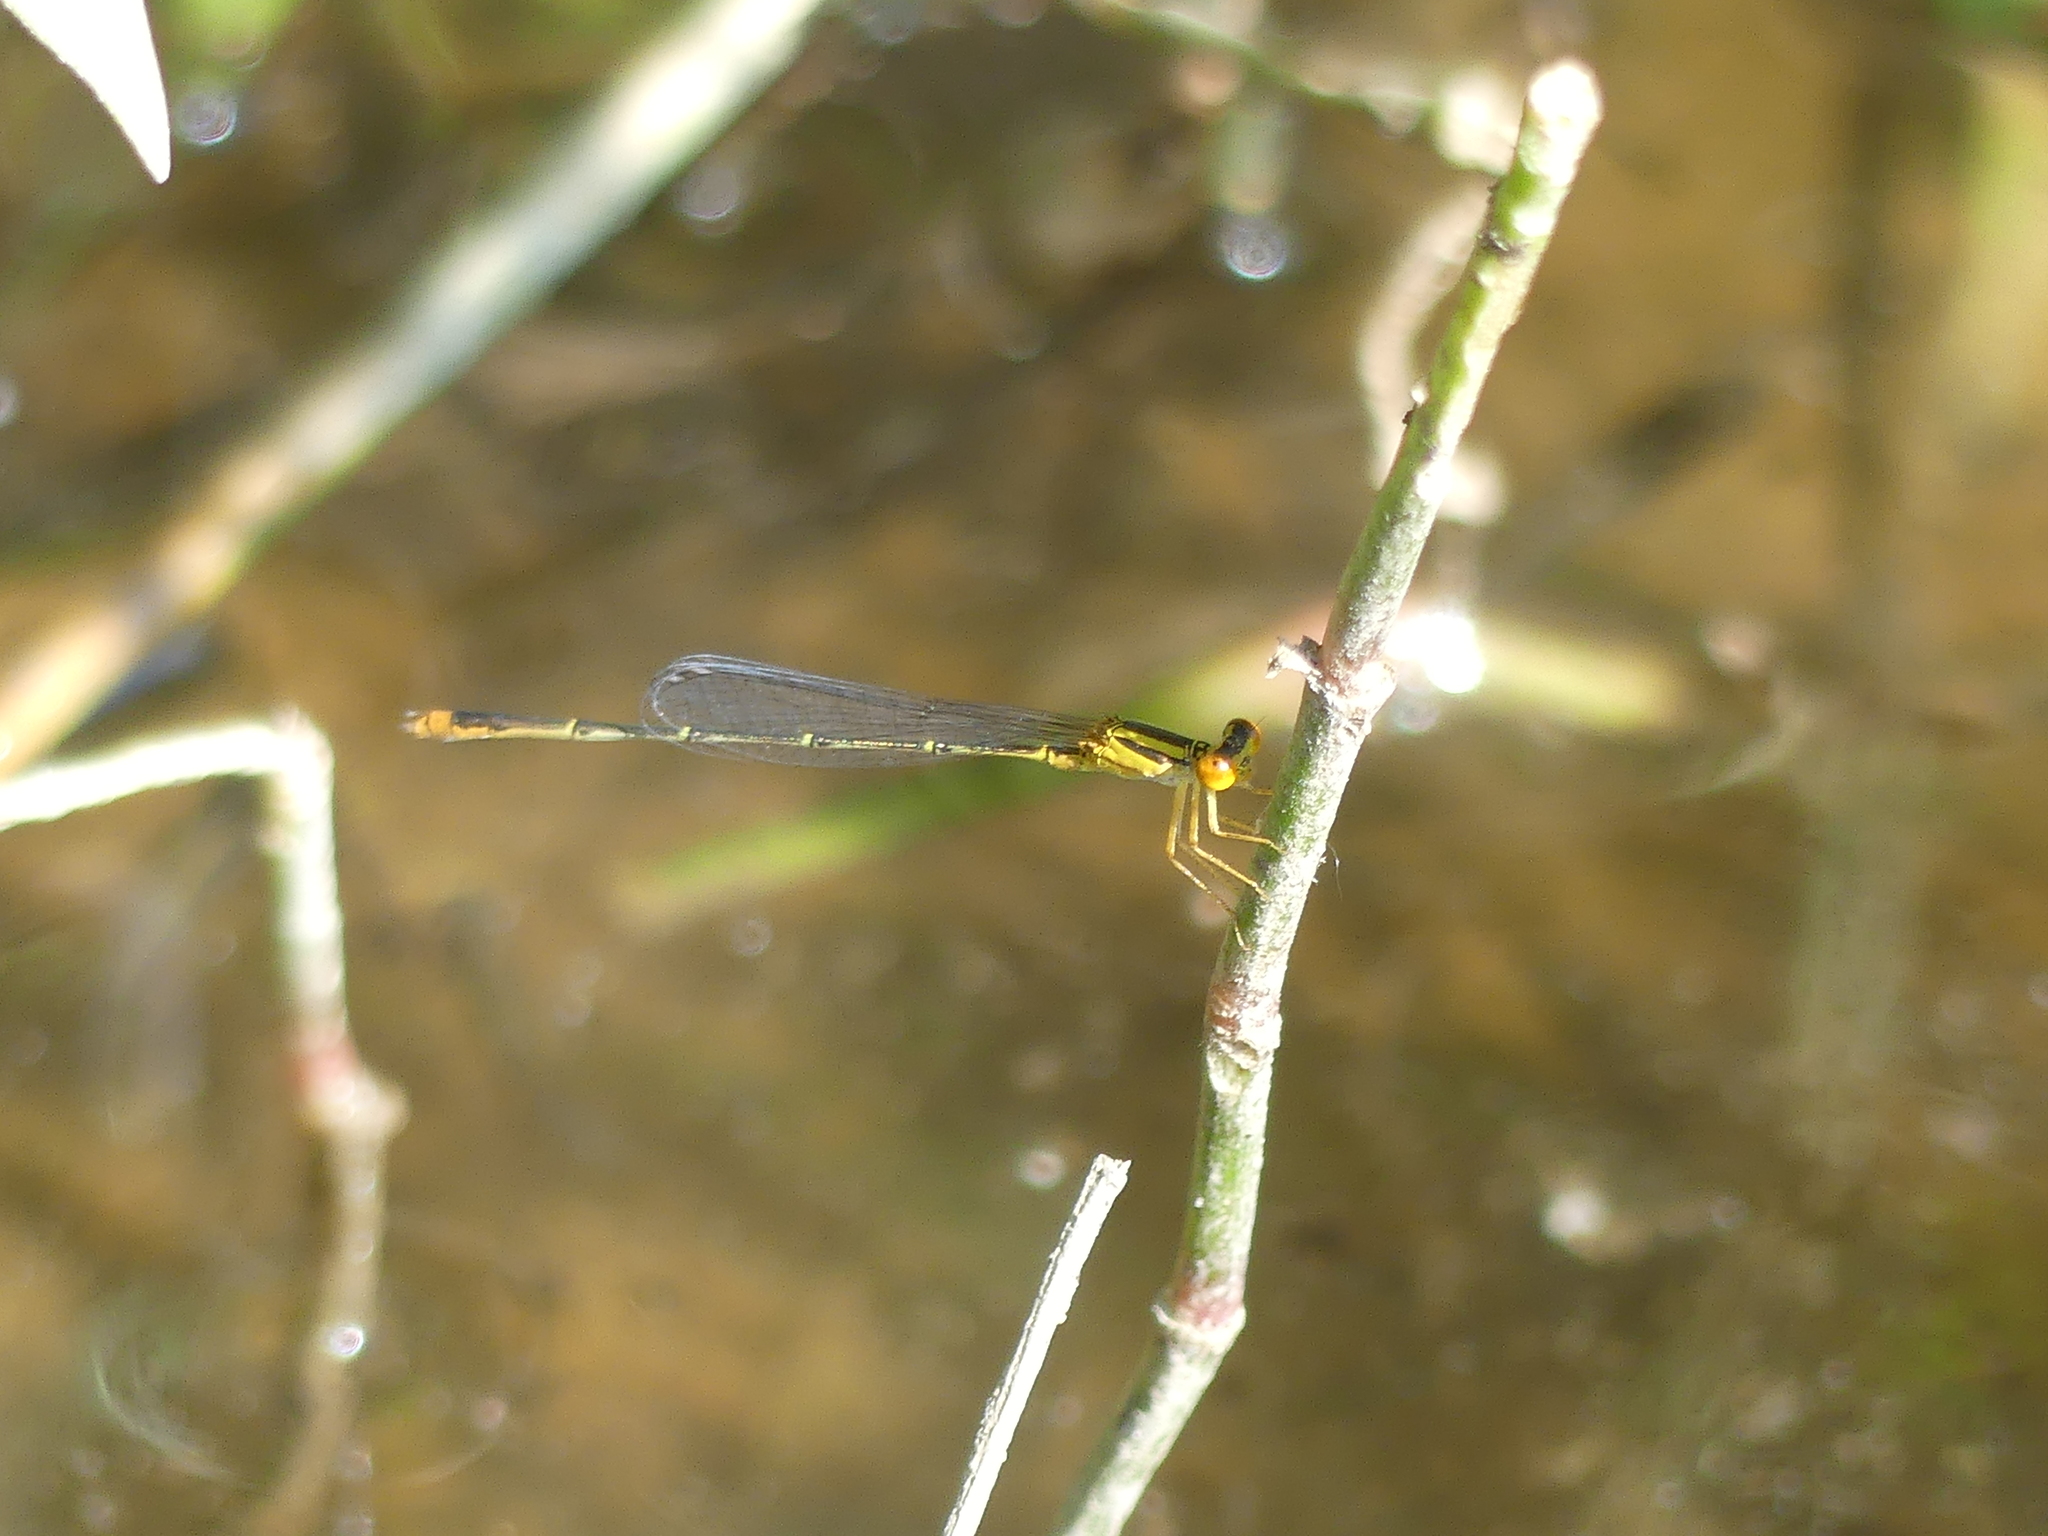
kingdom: Animalia
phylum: Arthropoda
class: Insecta
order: Odonata
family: Coenagrionidae
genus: Enallagma
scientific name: Enallagma signatum
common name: Orange bluet
